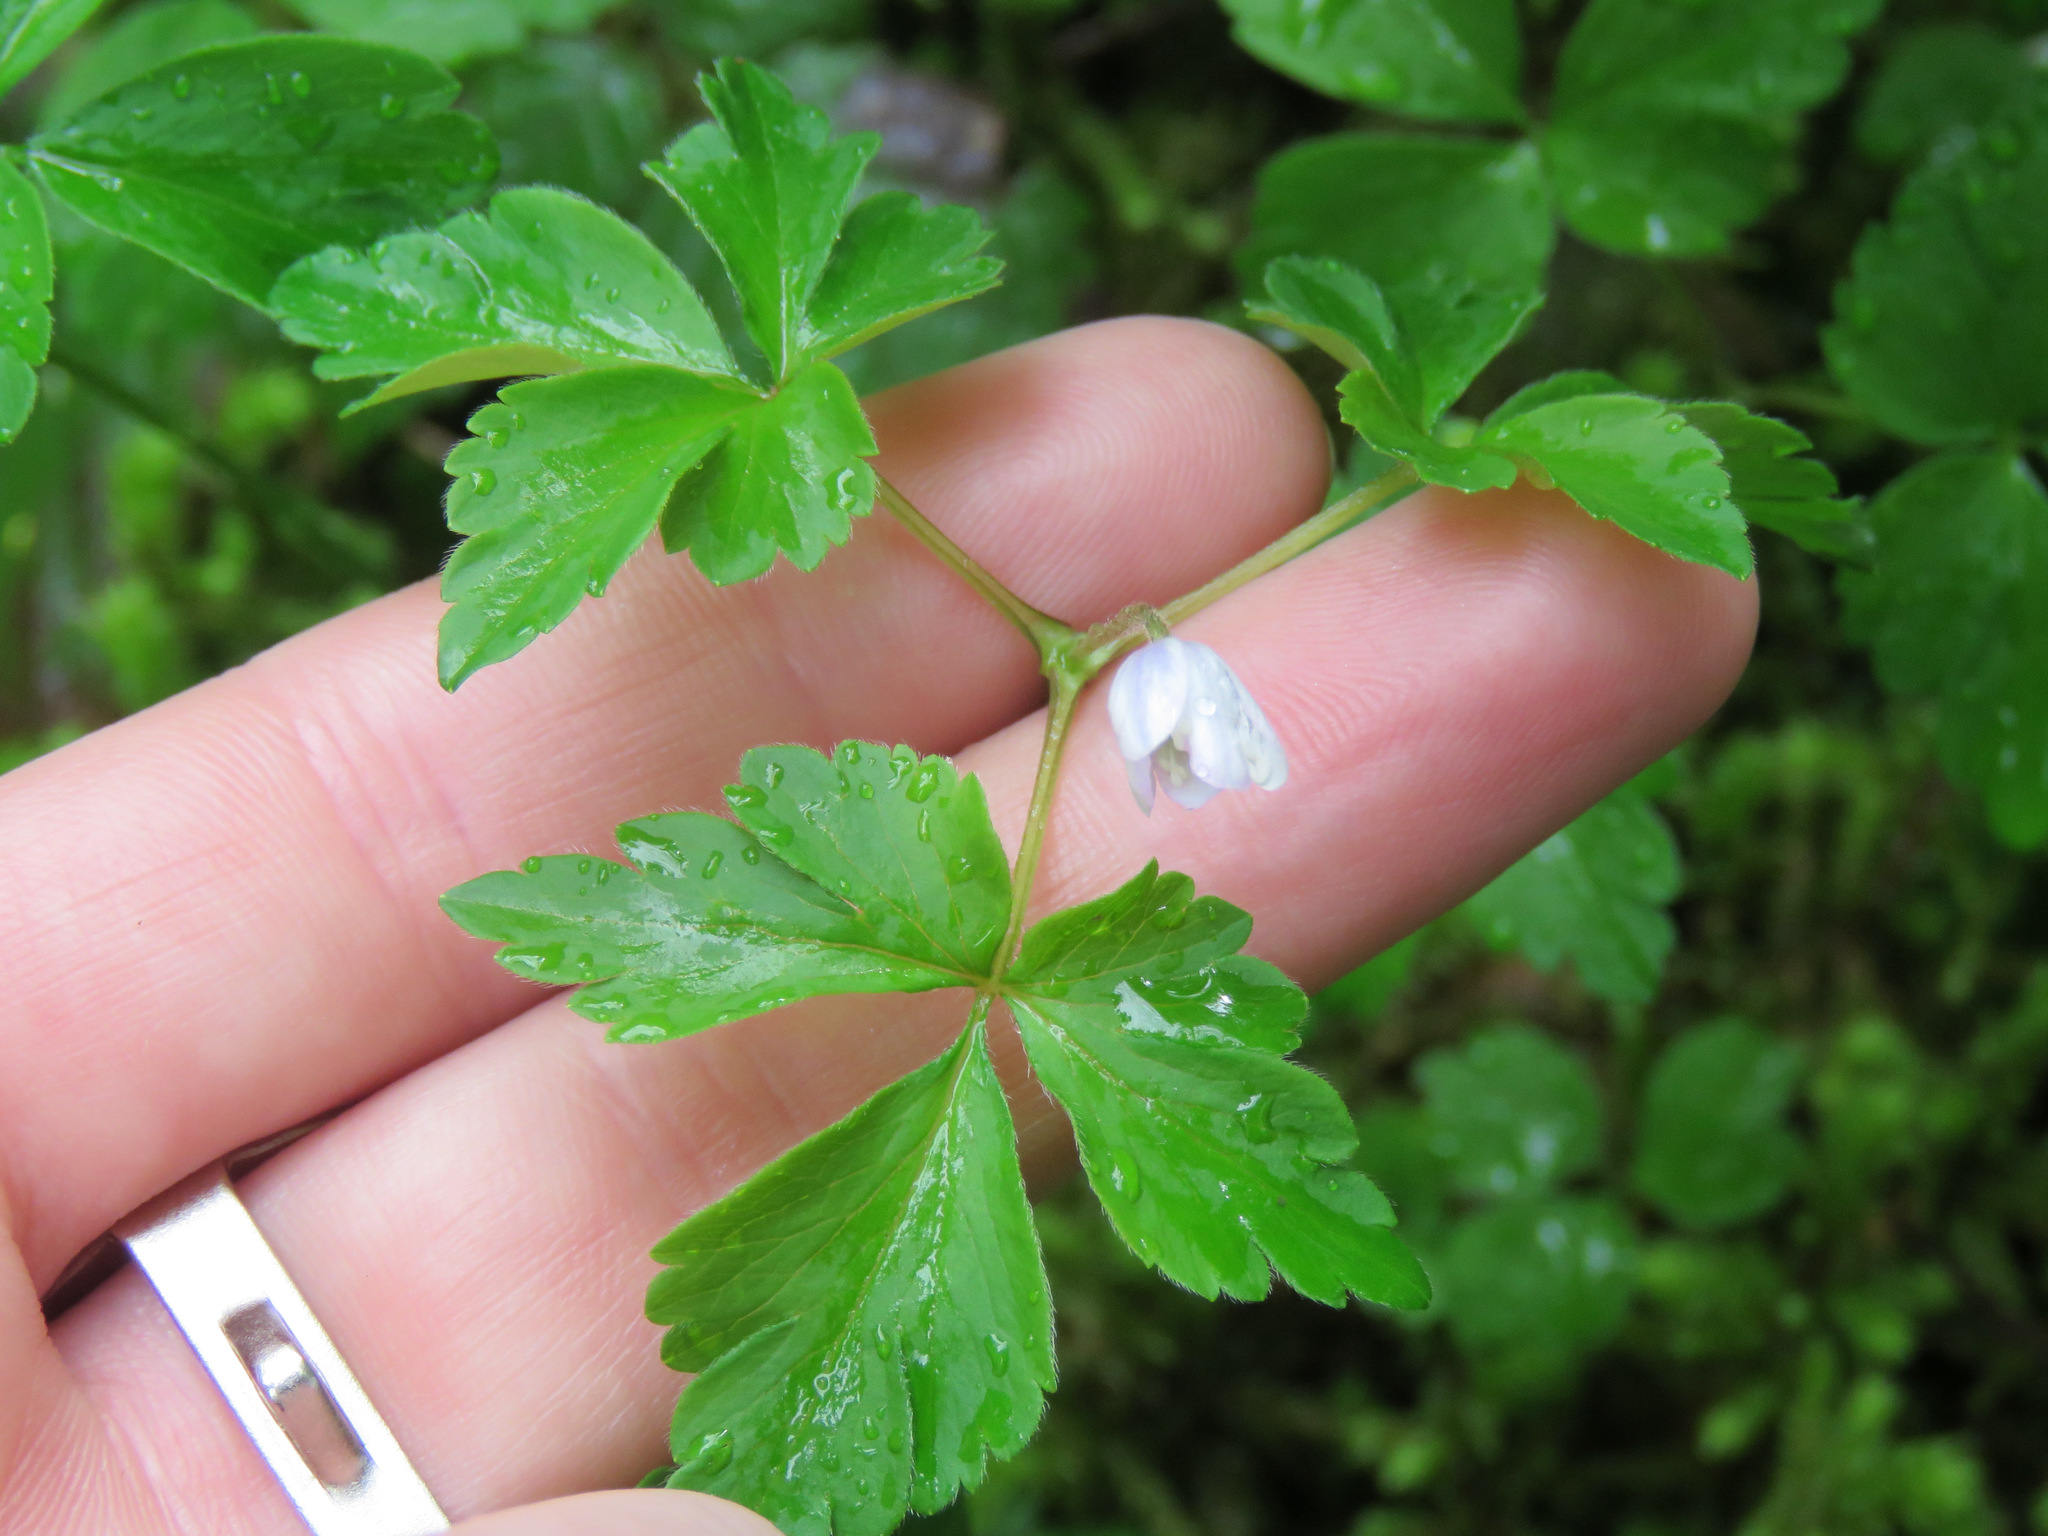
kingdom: Plantae
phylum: Tracheophyta
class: Magnoliopsida
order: Ranunculales
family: Ranunculaceae
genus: Anemone
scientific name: Anemone
